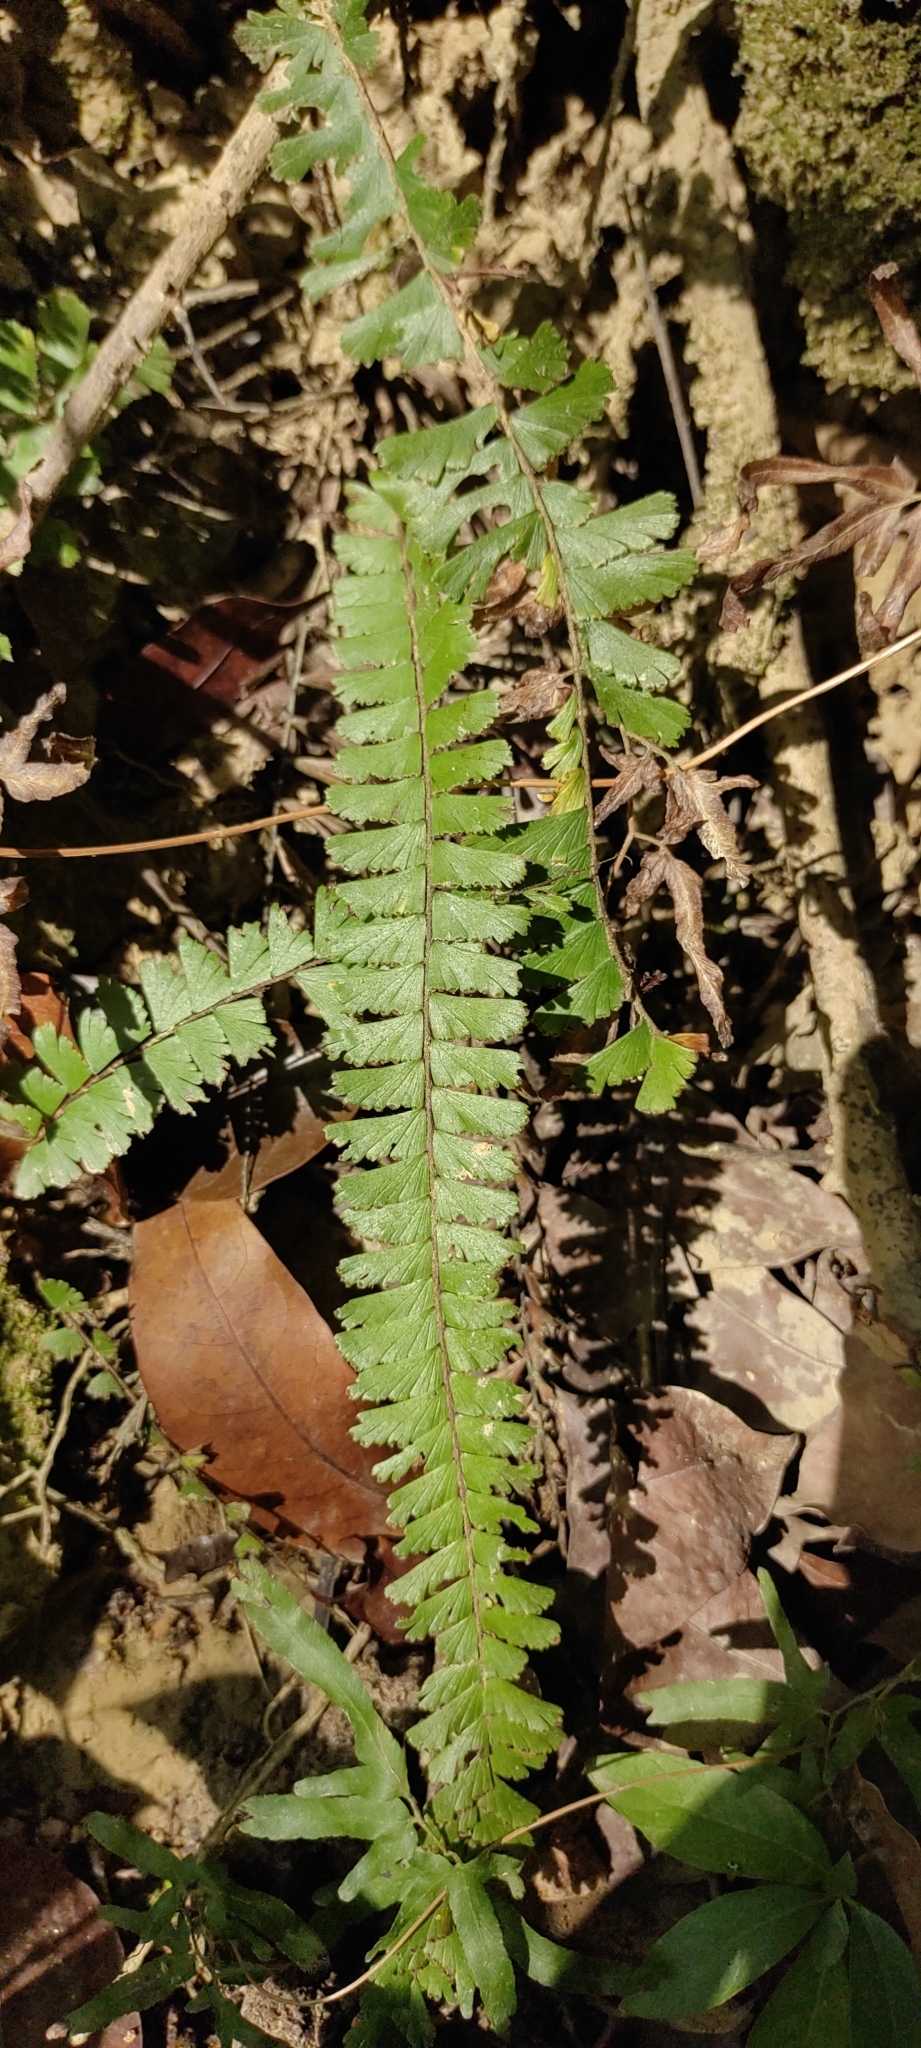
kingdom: Plantae
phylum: Tracheophyta
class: Polypodiopsida
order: Polypodiales
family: Pteridaceae
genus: Adiantum
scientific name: Adiantum caudatum
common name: Tailed maidenhair
